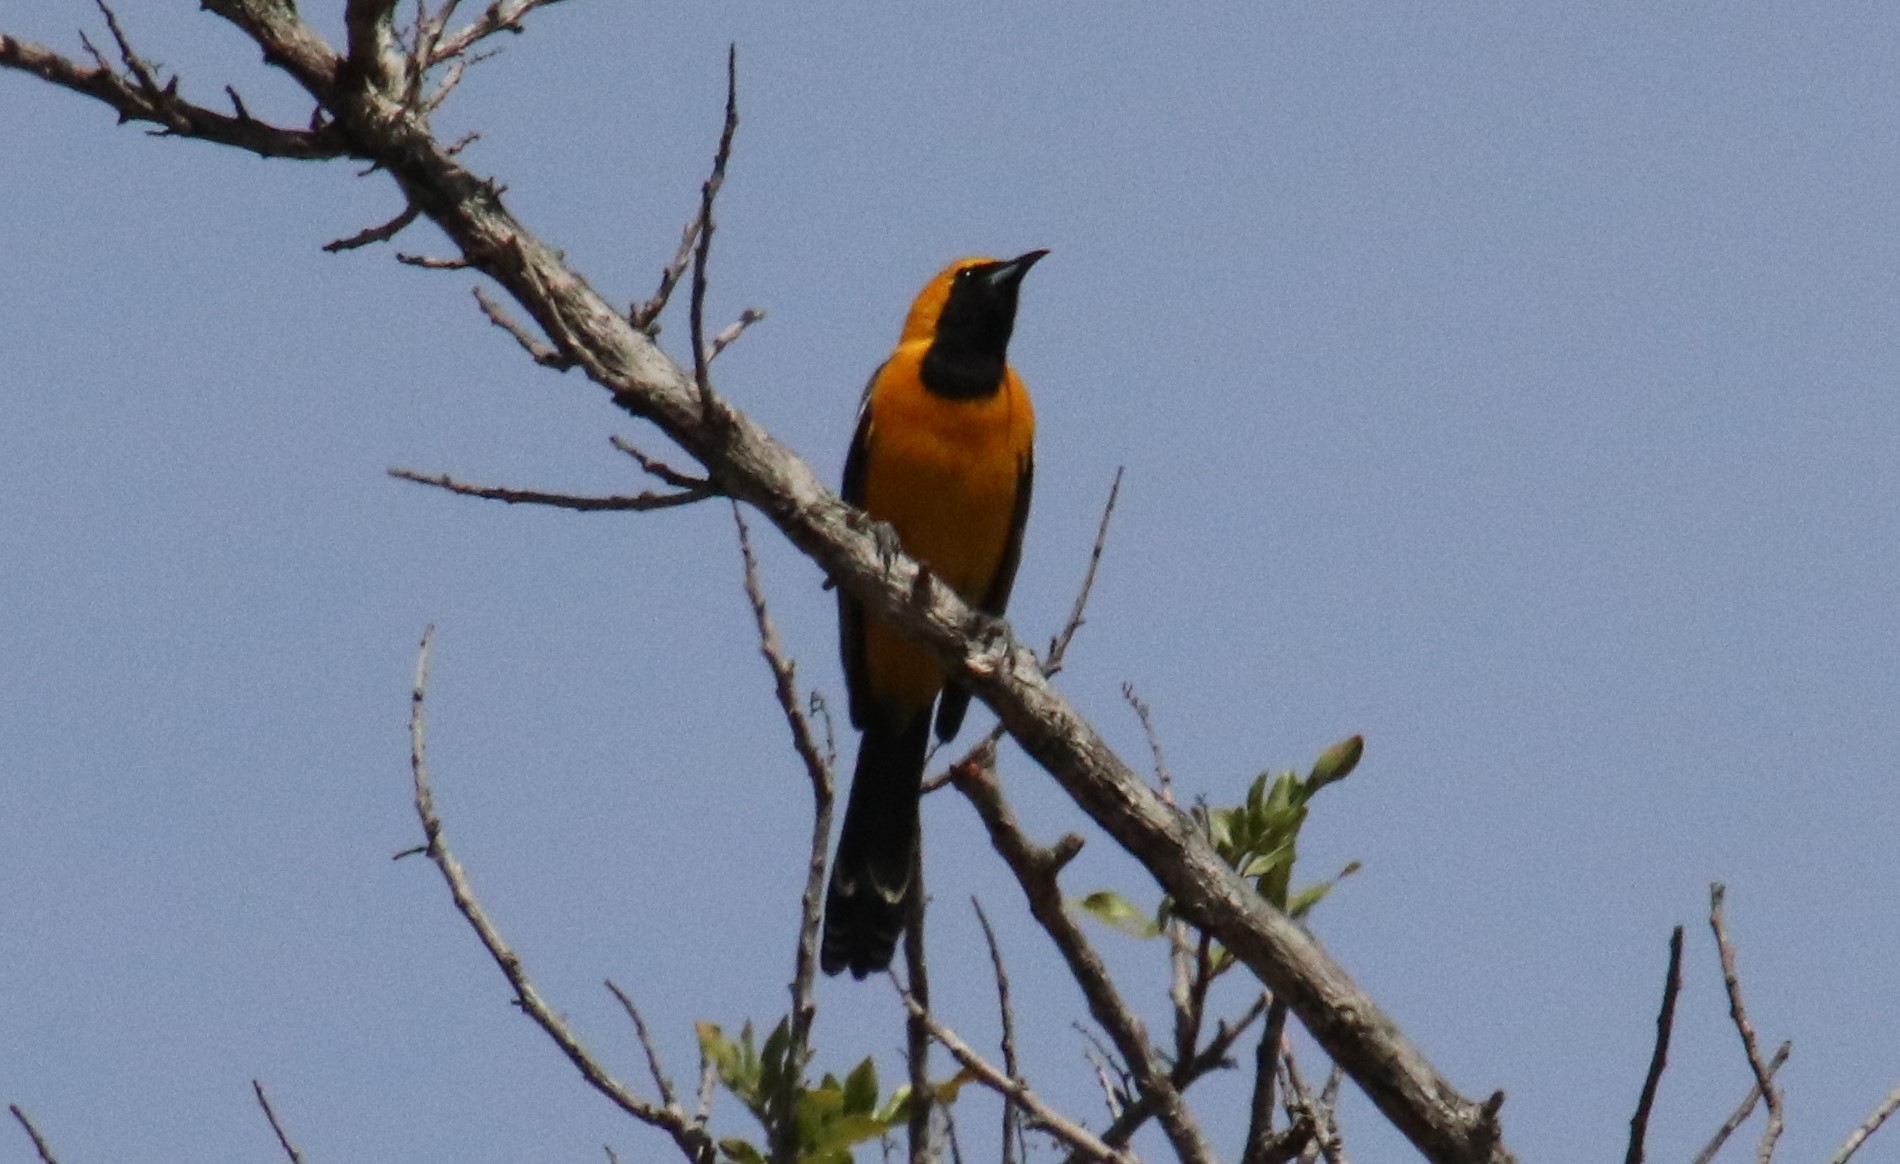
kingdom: Animalia
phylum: Chordata
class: Aves
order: Passeriformes
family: Icteridae
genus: Icterus
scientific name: Icterus cucullatus
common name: Hooded oriole
